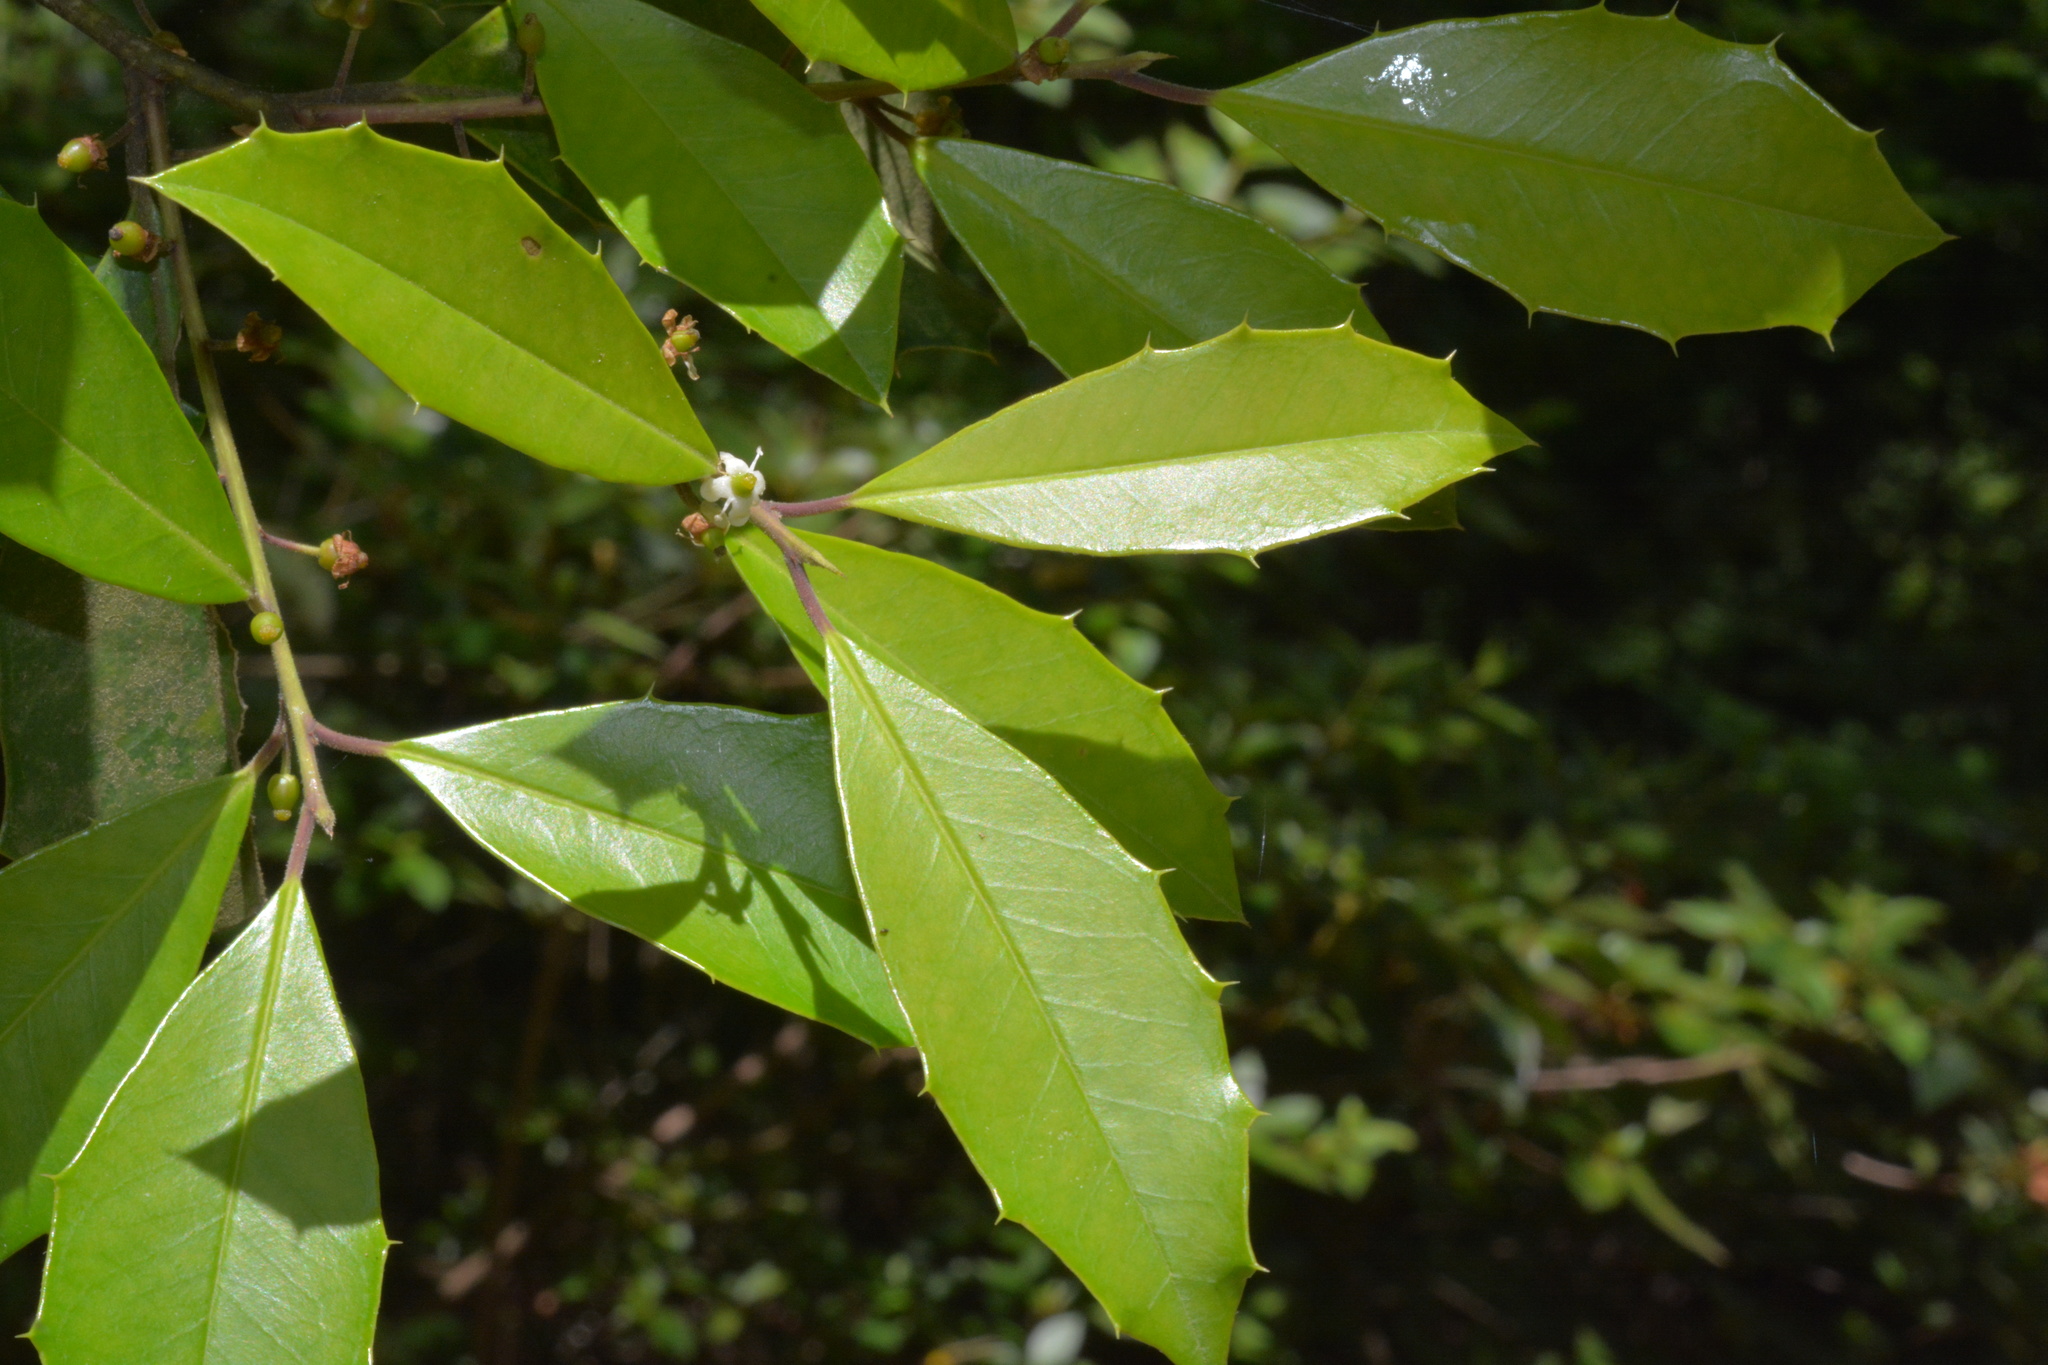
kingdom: Plantae
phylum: Tracheophyta
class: Magnoliopsida
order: Aquifoliales
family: Aquifoliaceae
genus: Ilex
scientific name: Ilex opaca
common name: American holly
